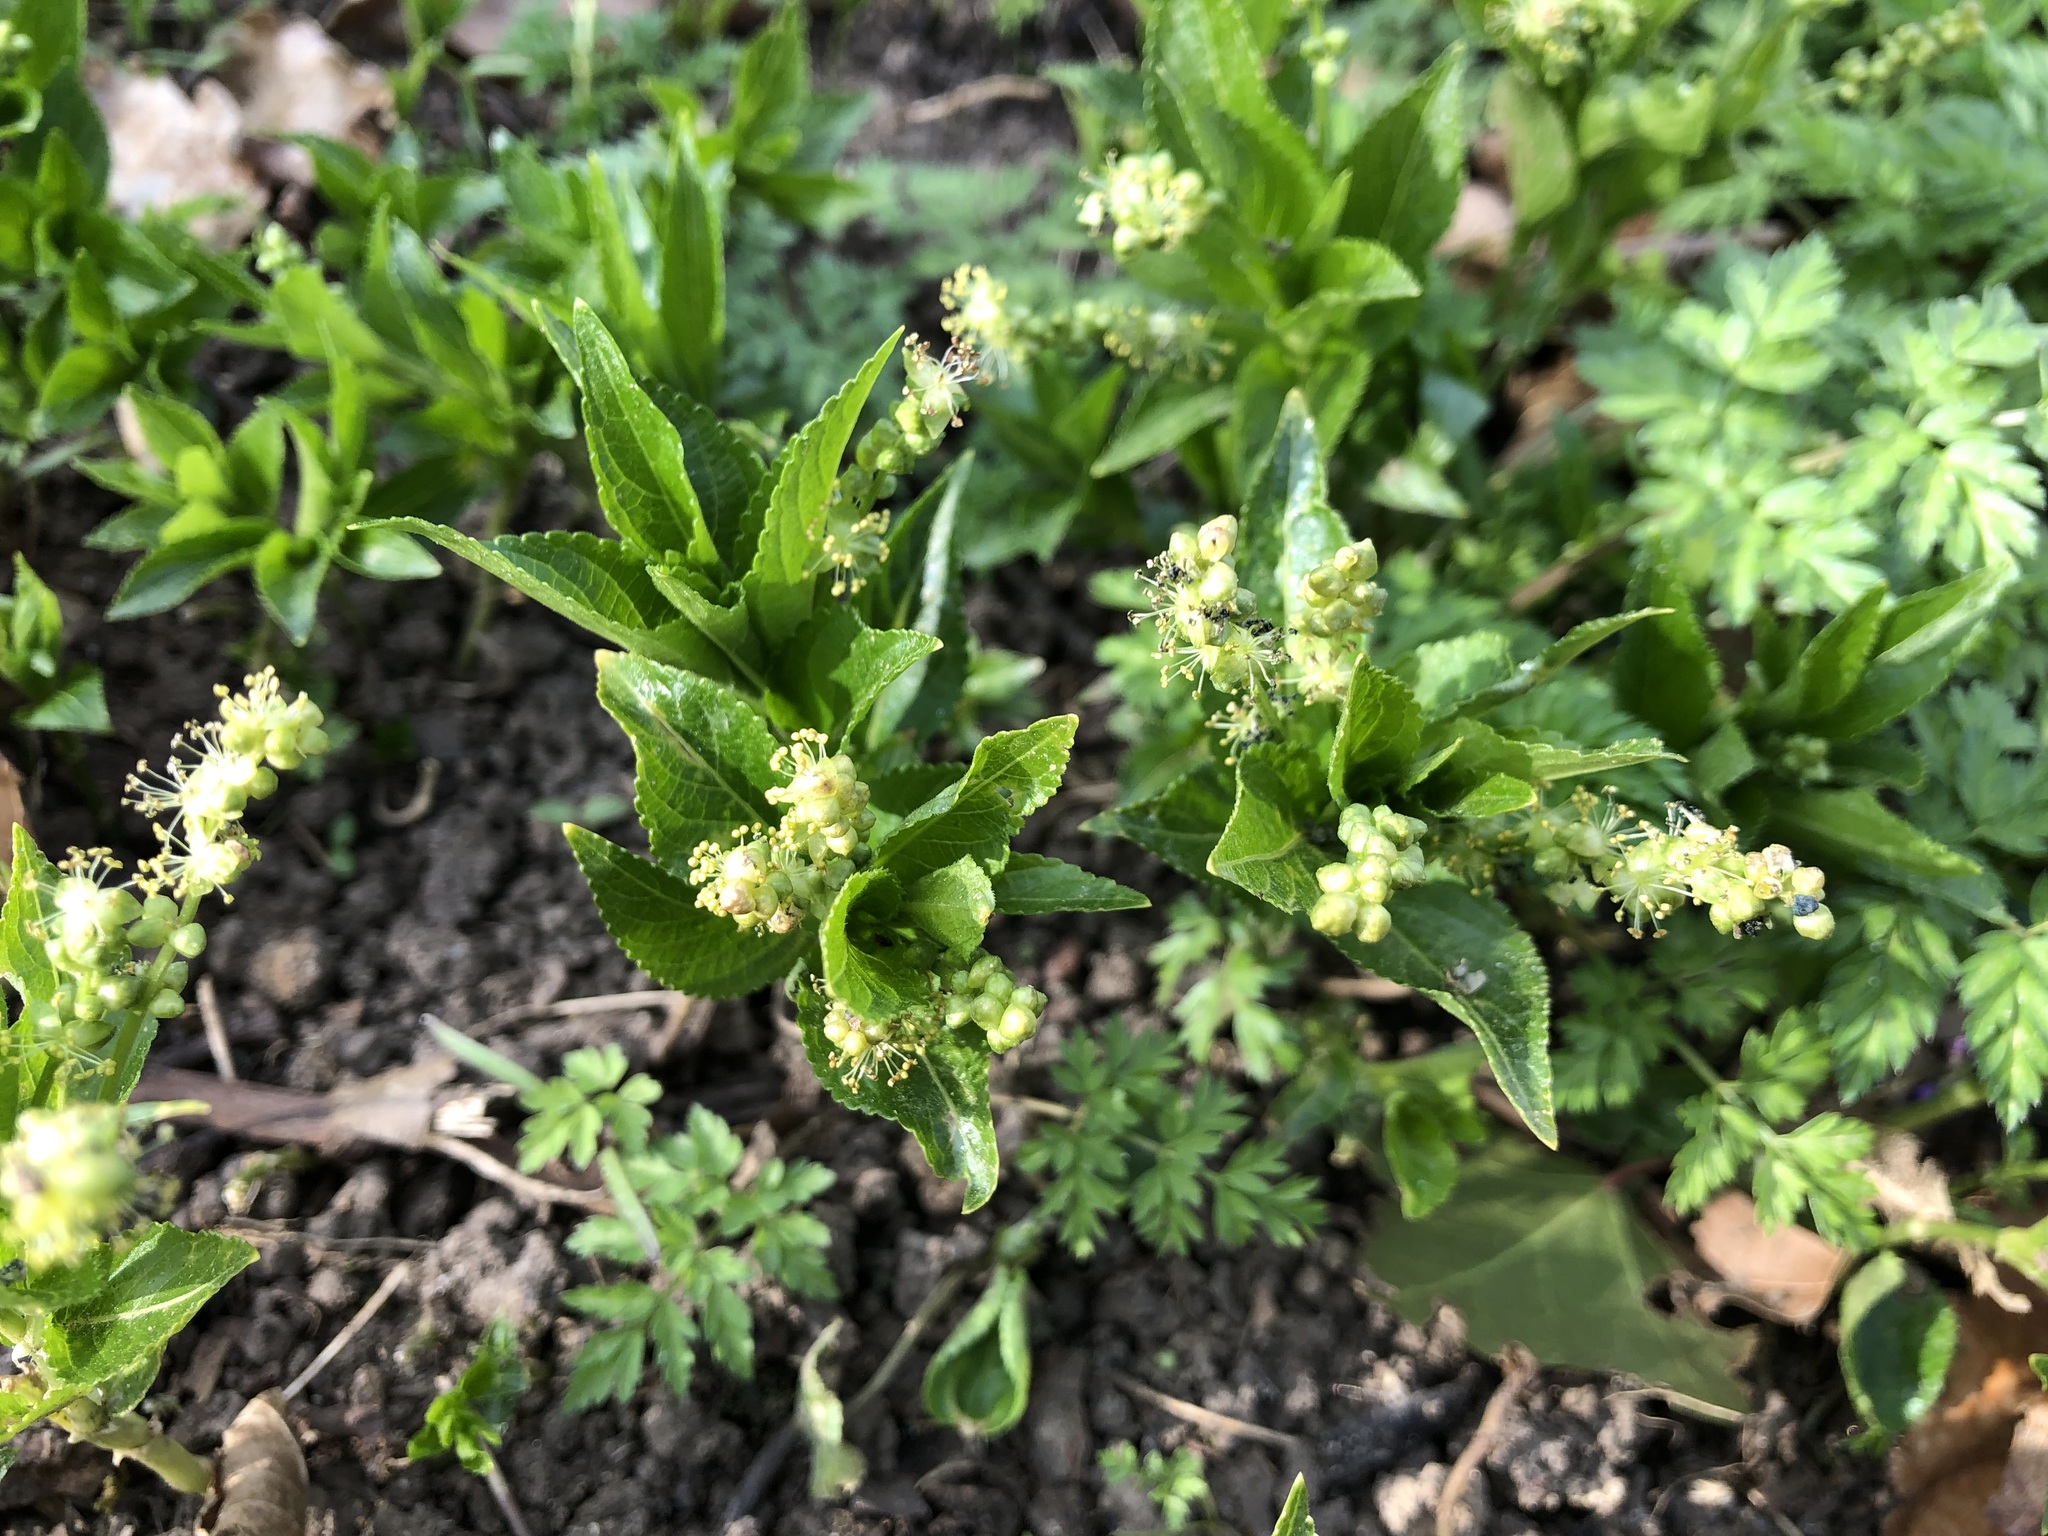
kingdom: Plantae
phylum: Tracheophyta
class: Magnoliopsida
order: Malpighiales
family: Euphorbiaceae
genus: Mercurialis
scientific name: Mercurialis perennis
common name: Dog mercury
